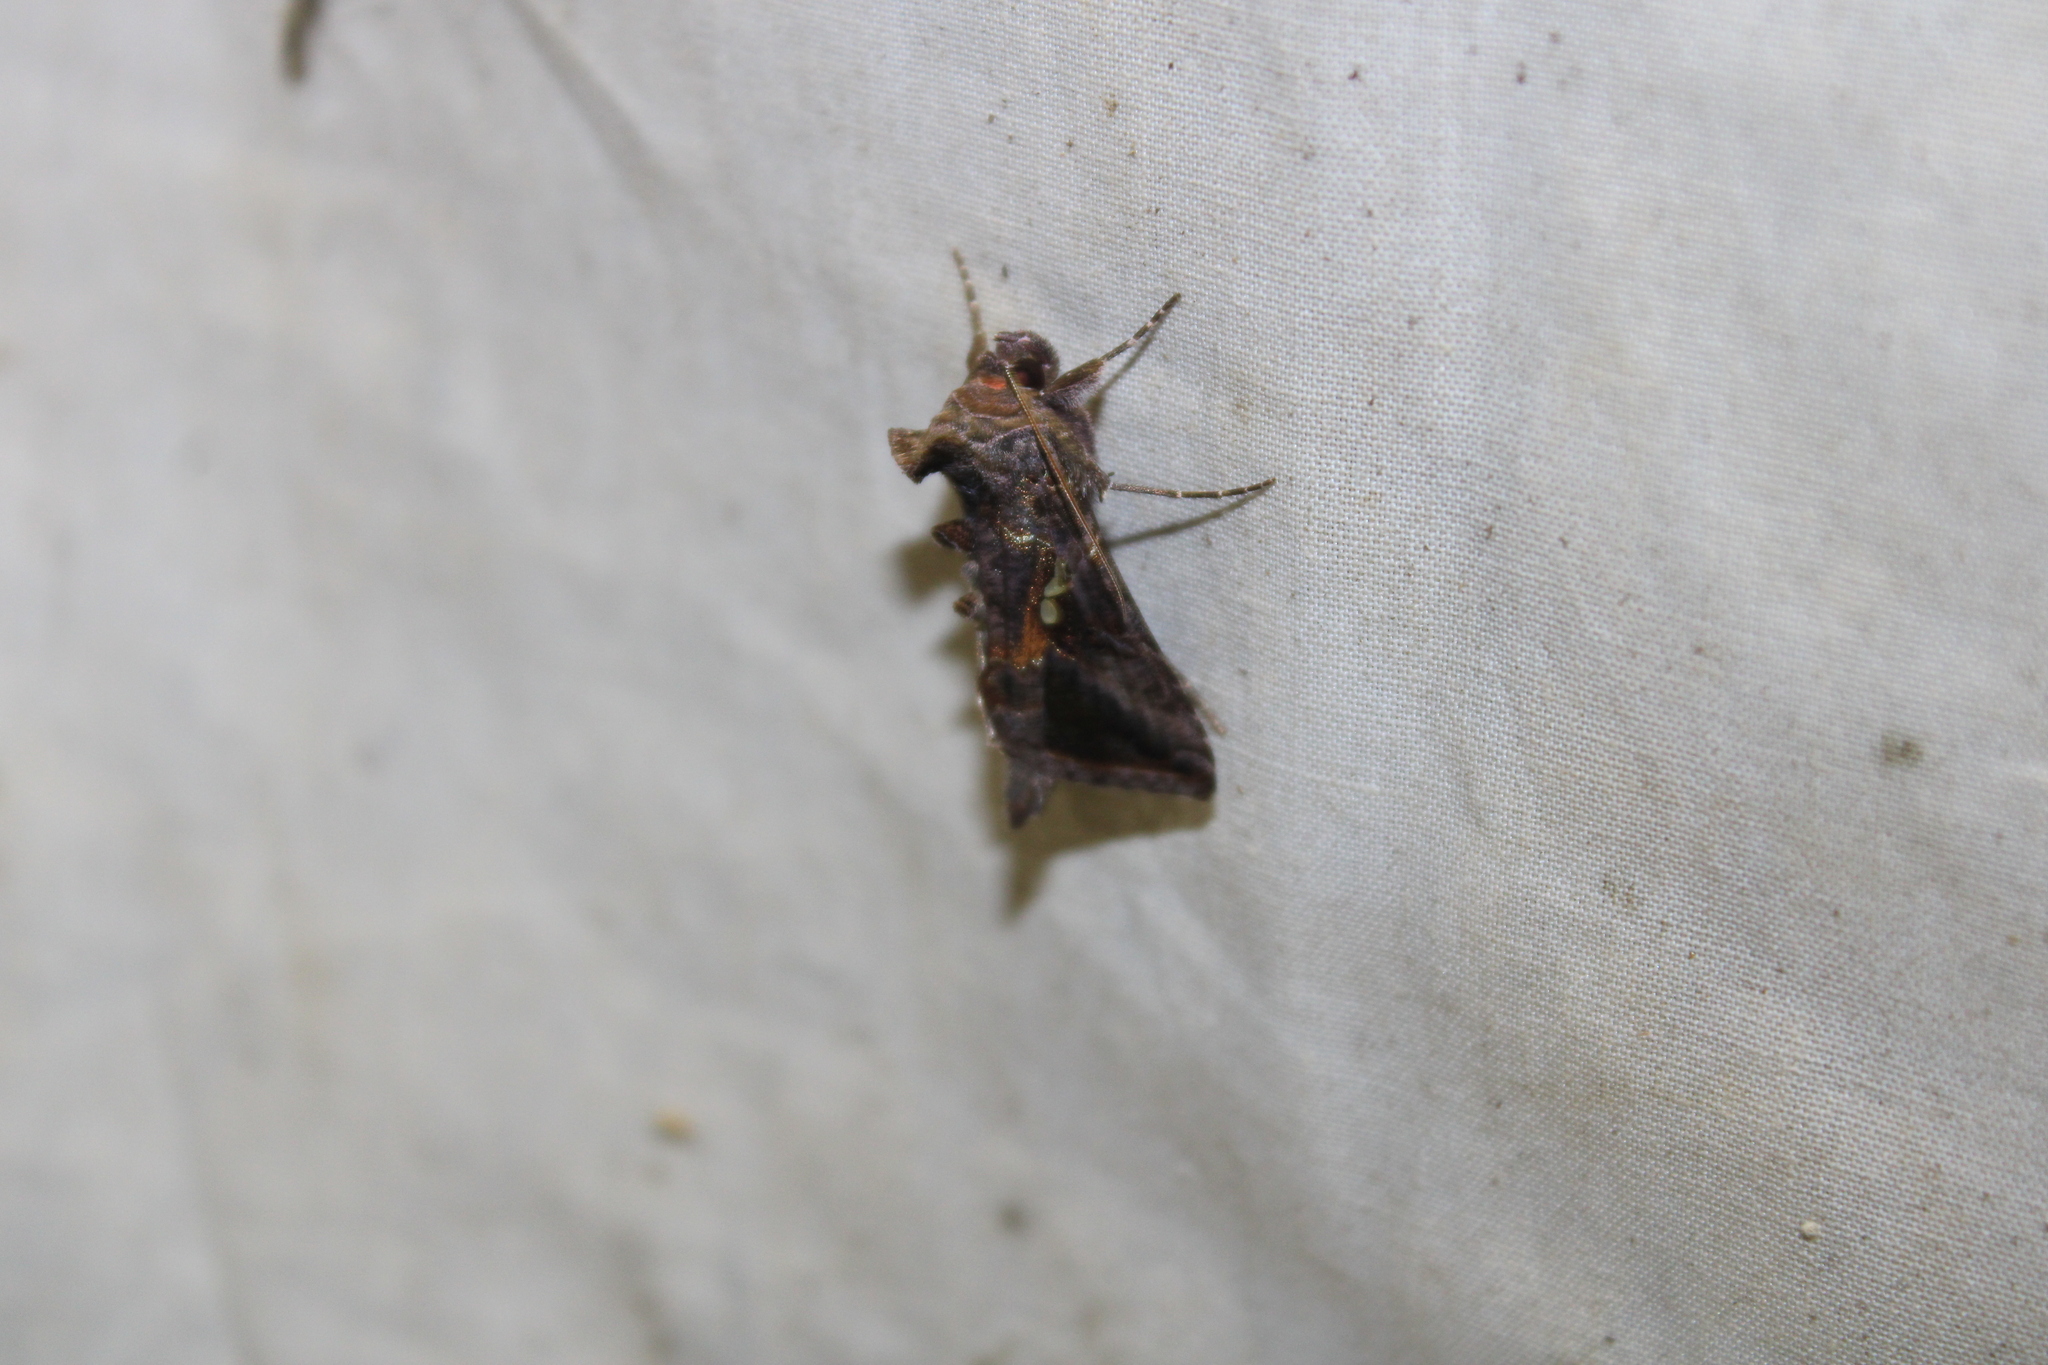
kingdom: Animalia
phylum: Arthropoda
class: Insecta
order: Lepidoptera
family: Noctuidae
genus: Autographa
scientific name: Autographa precationis
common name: Common looper moth
